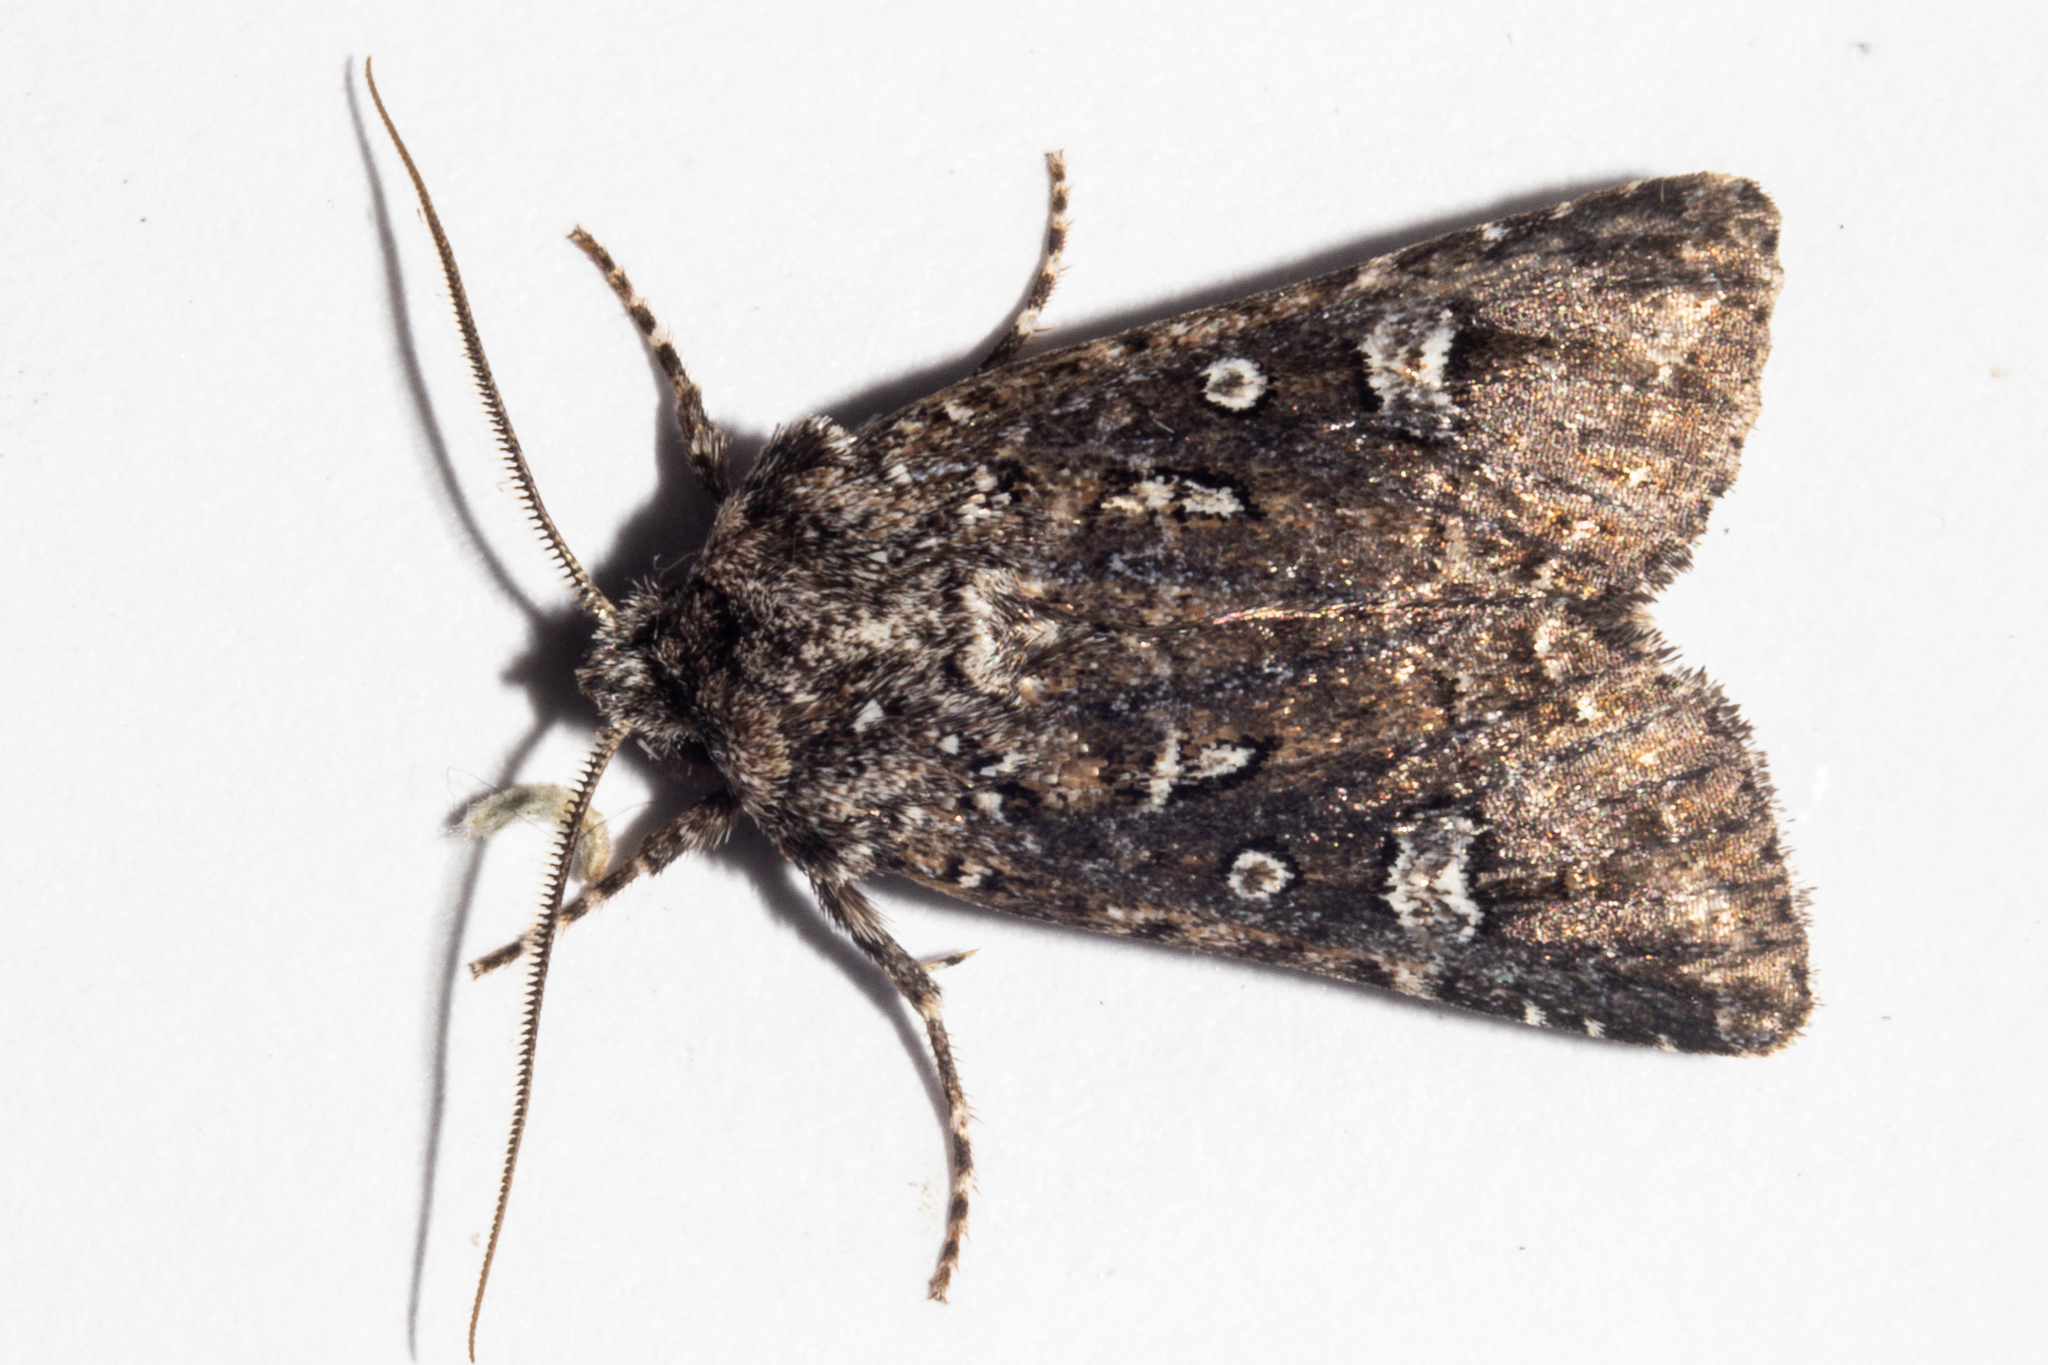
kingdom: Animalia
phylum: Arthropoda
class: Insecta
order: Lepidoptera
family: Noctuidae
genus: Ichneutica
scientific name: Ichneutica lithias
